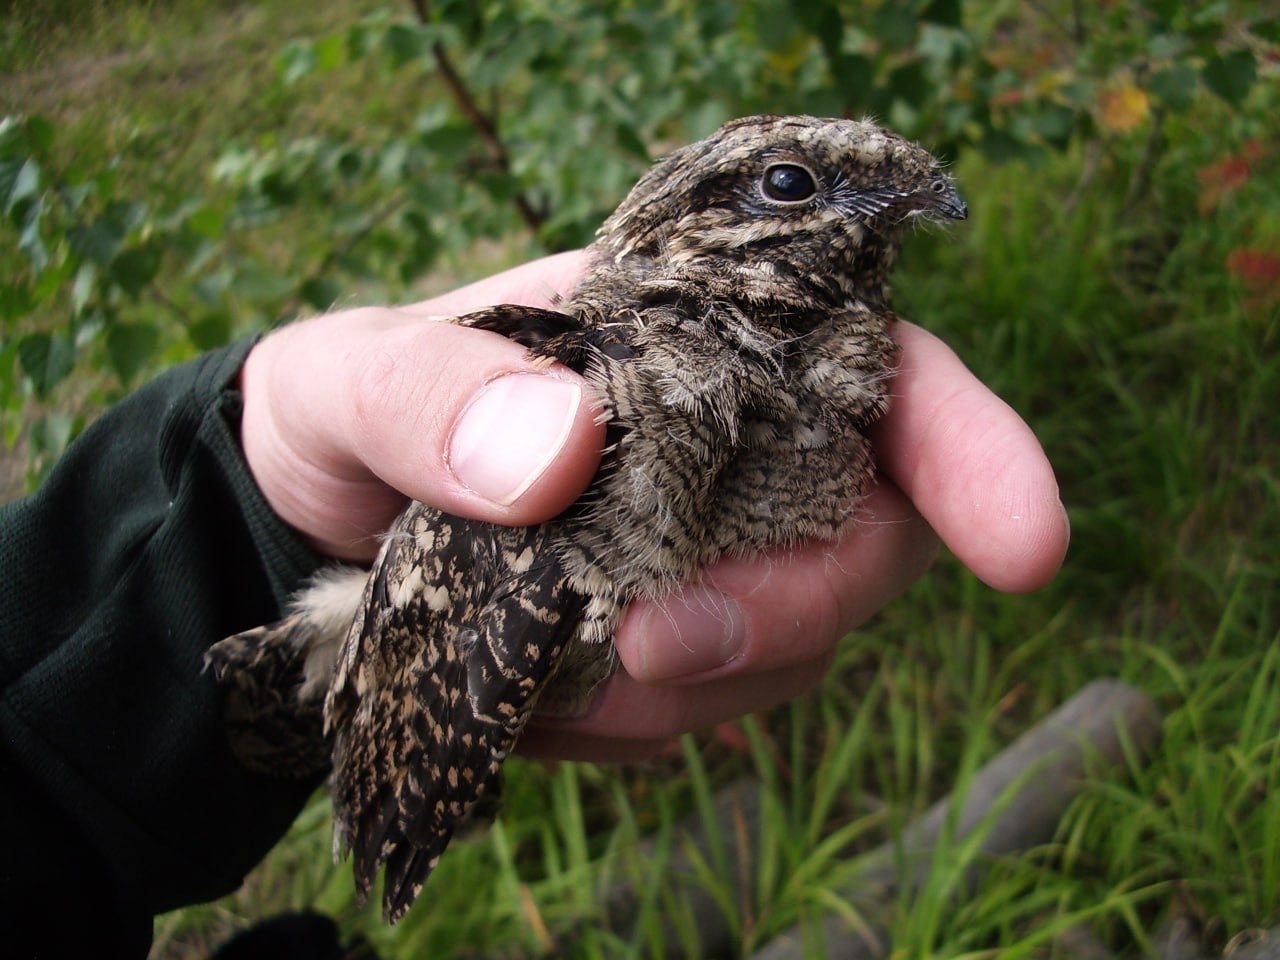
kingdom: Animalia
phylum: Chordata
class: Aves
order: Caprimulgiformes
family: Caprimulgidae
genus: Caprimulgus
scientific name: Caprimulgus europaeus
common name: European nightjar
